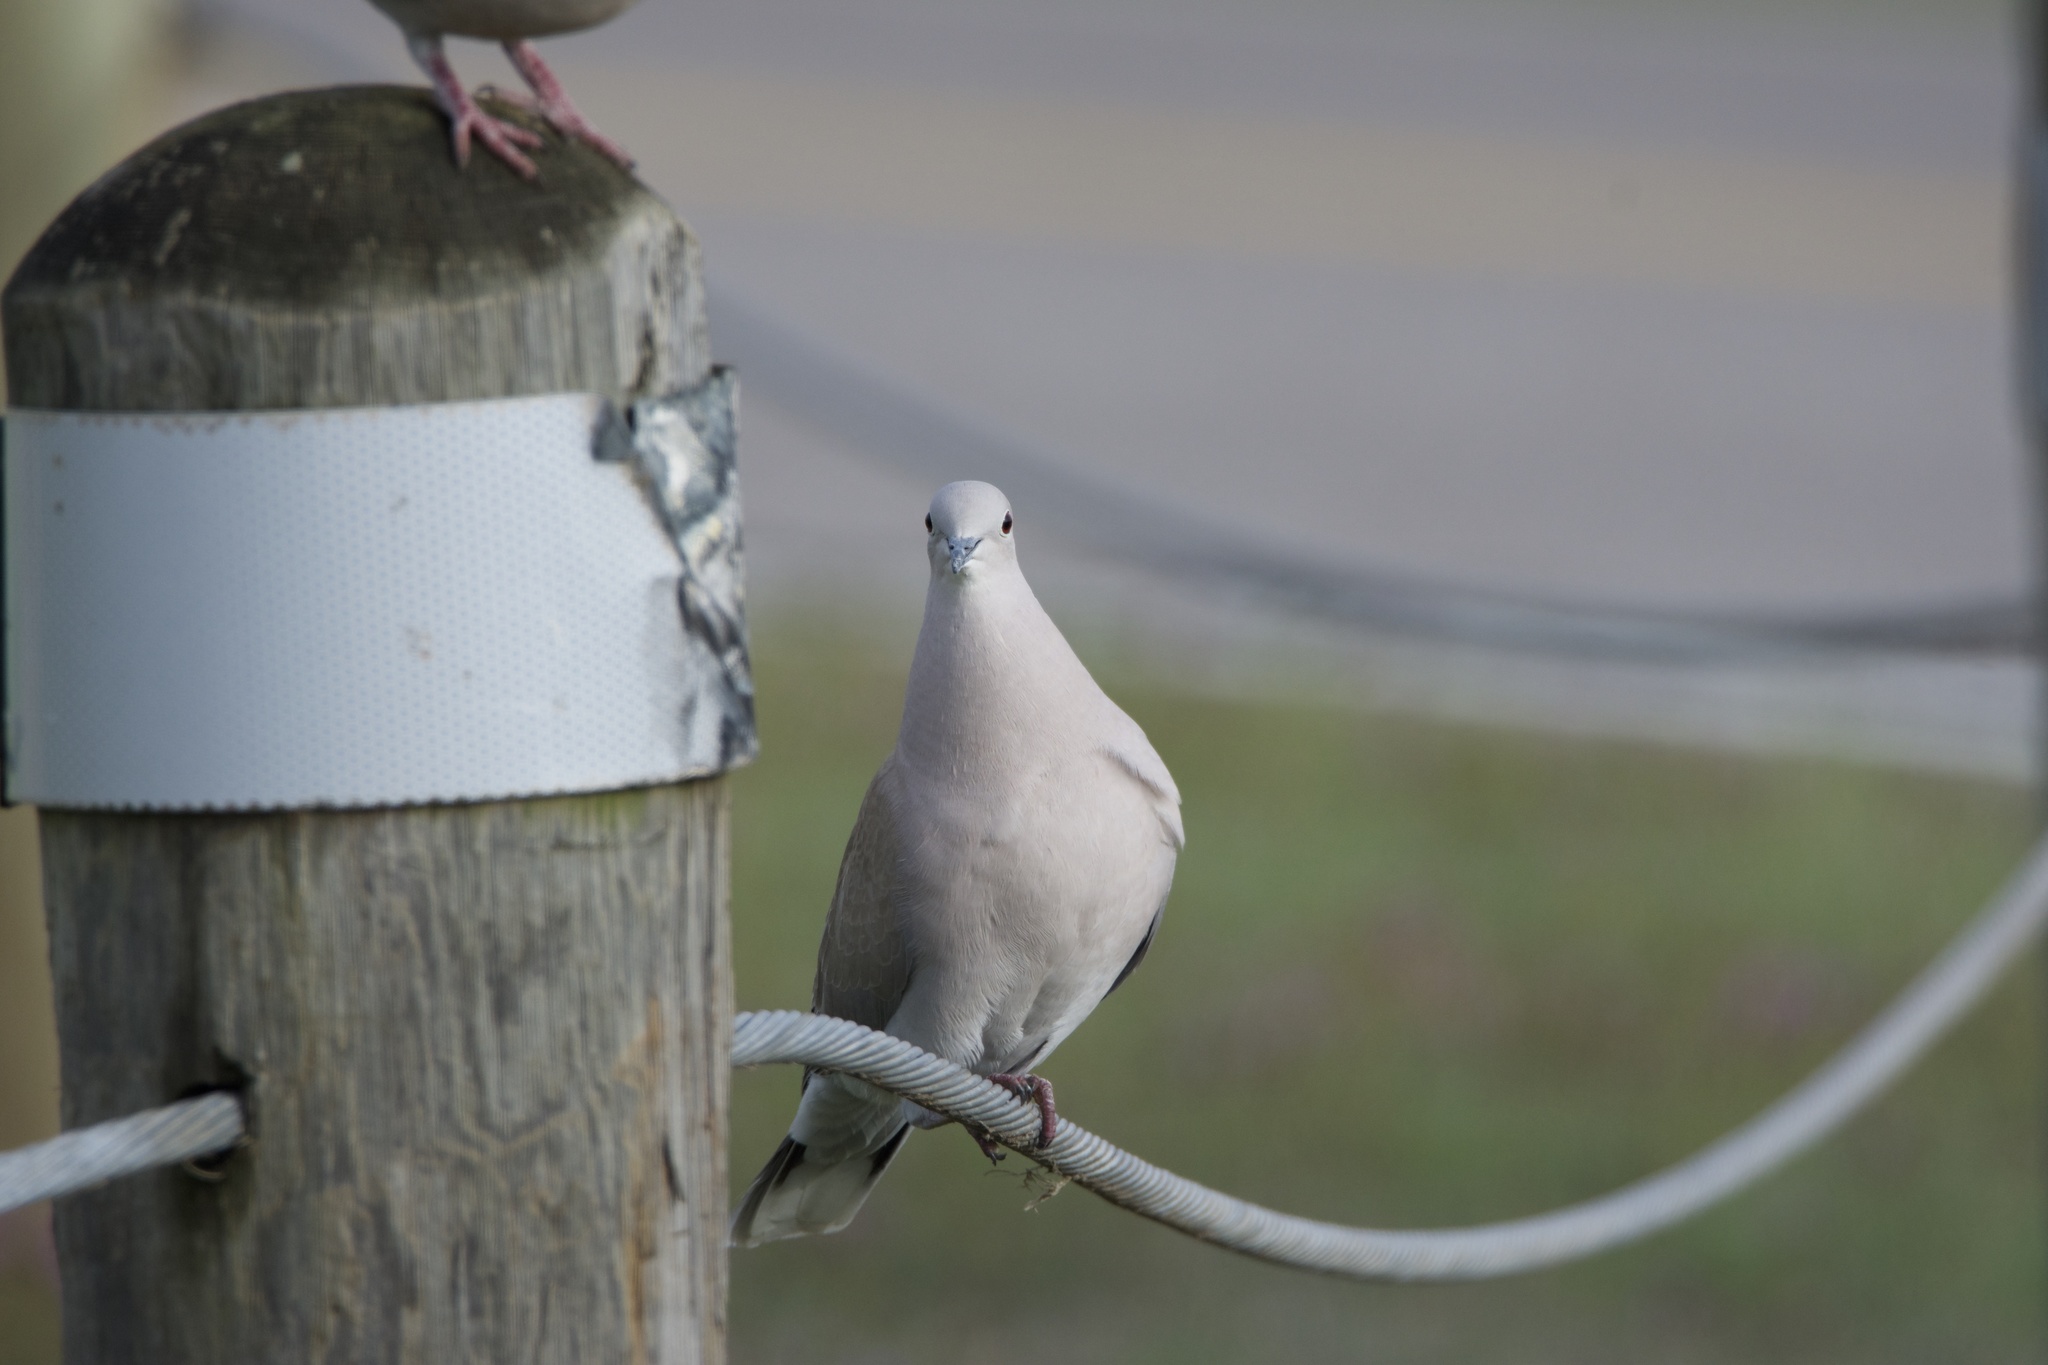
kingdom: Animalia
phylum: Chordata
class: Aves
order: Columbiformes
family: Columbidae
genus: Streptopelia
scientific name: Streptopelia decaocto
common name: Eurasian collared dove
